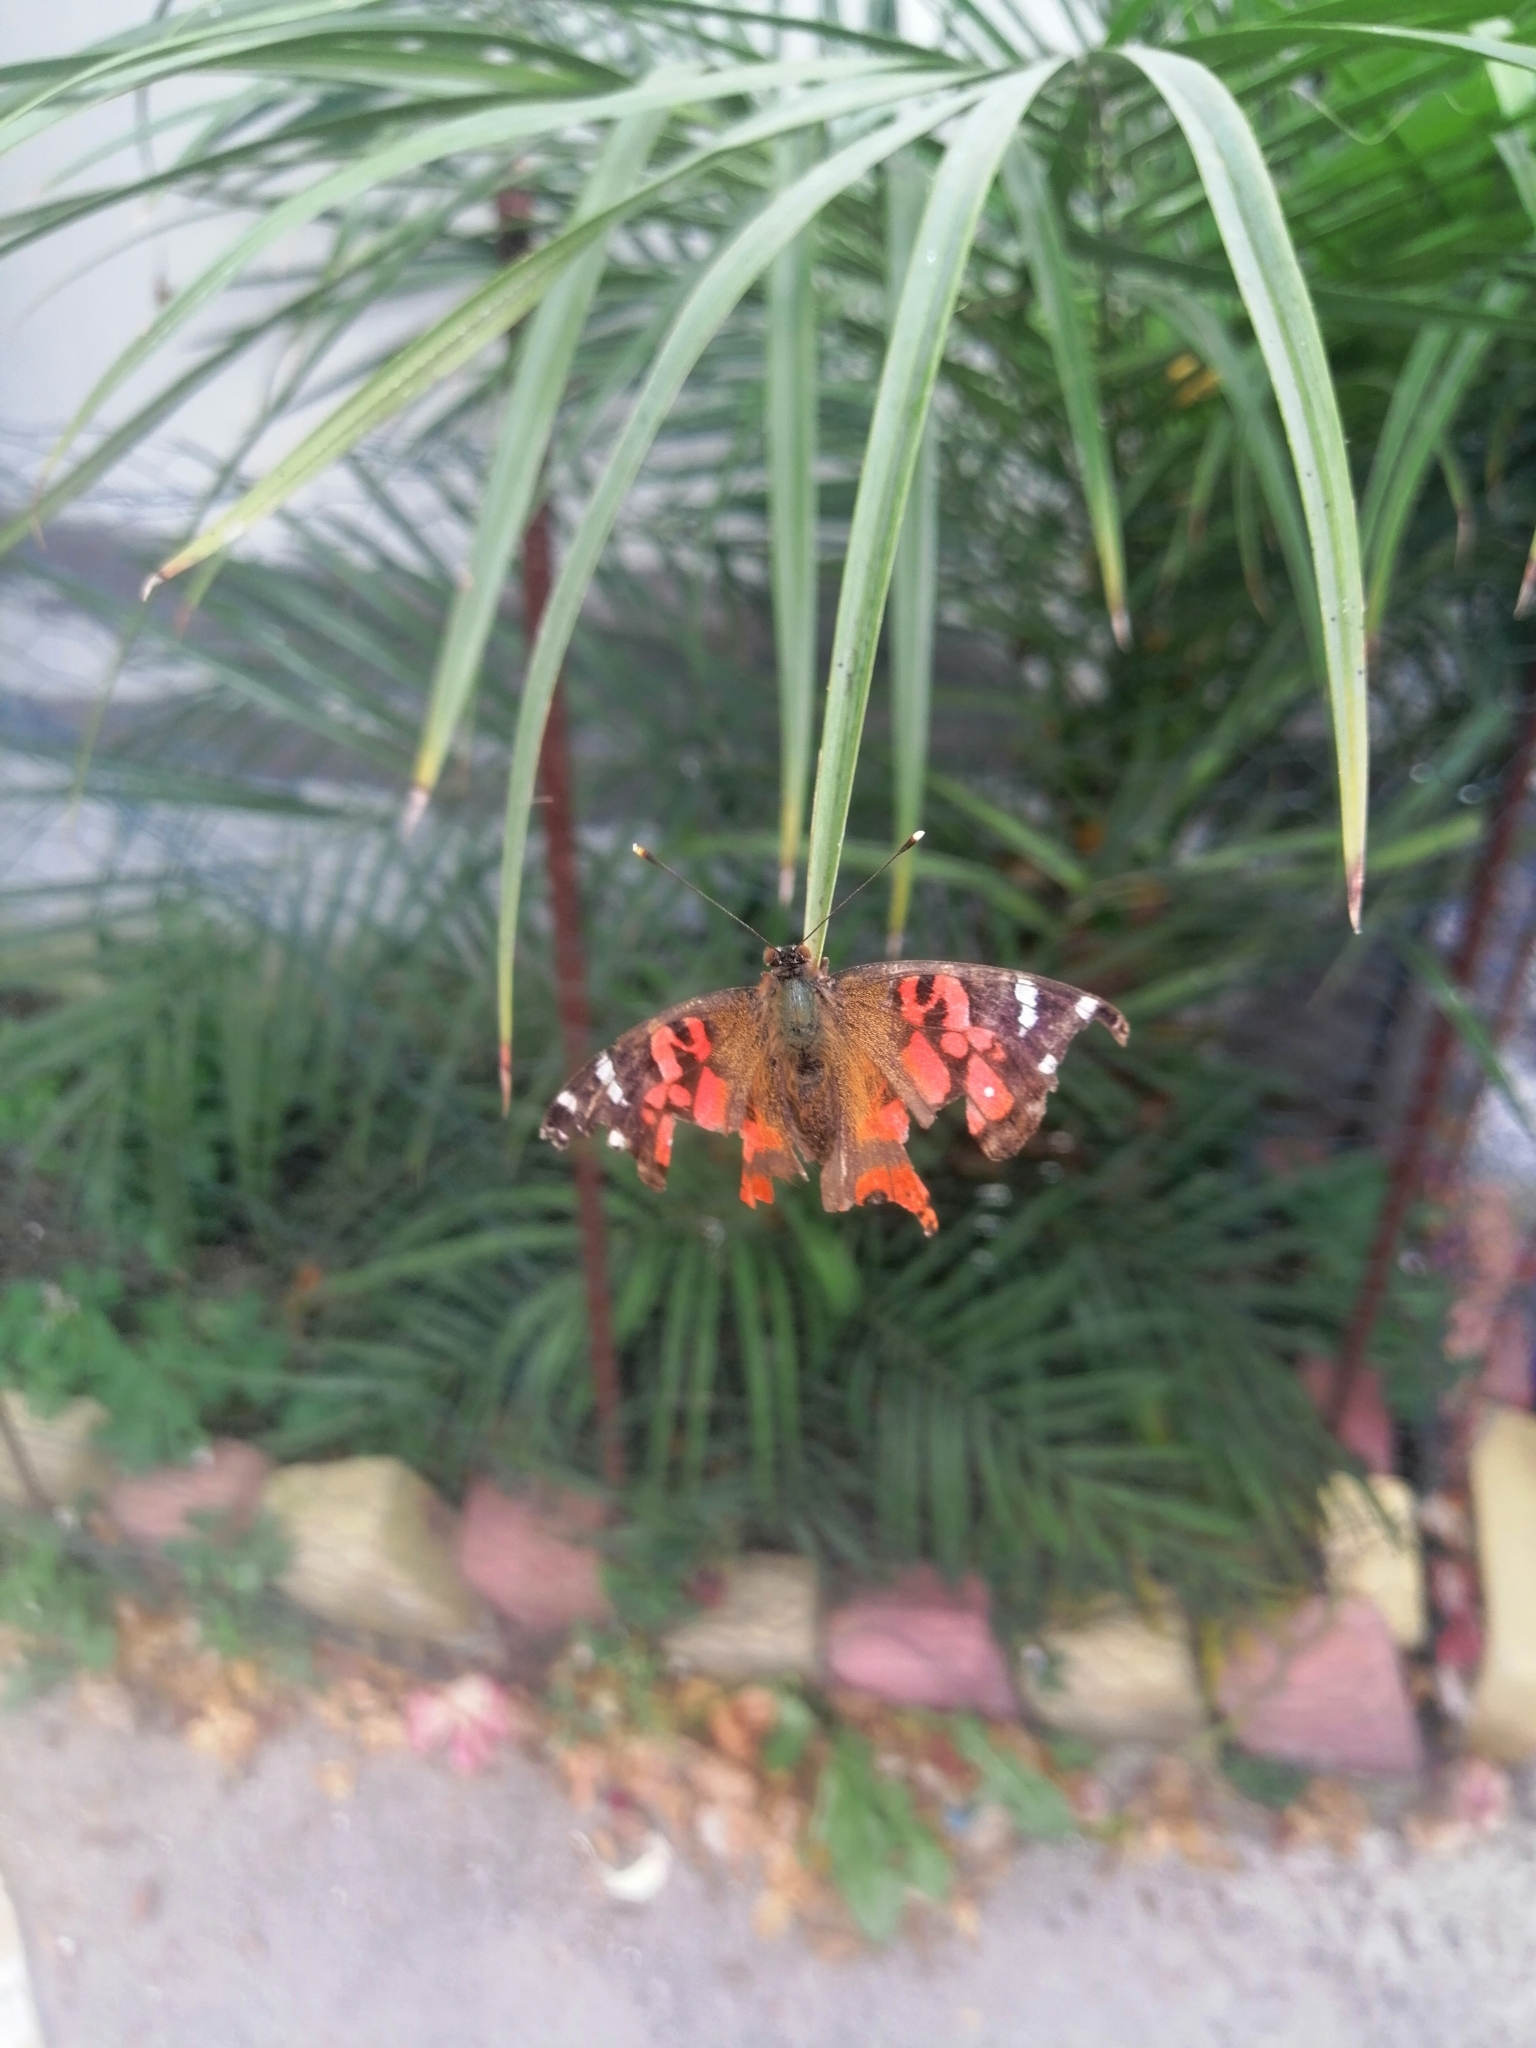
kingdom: Animalia
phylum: Arthropoda
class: Insecta
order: Lepidoptera
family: Nymphalidae
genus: Vanessa
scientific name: Vanessa braziliensis
